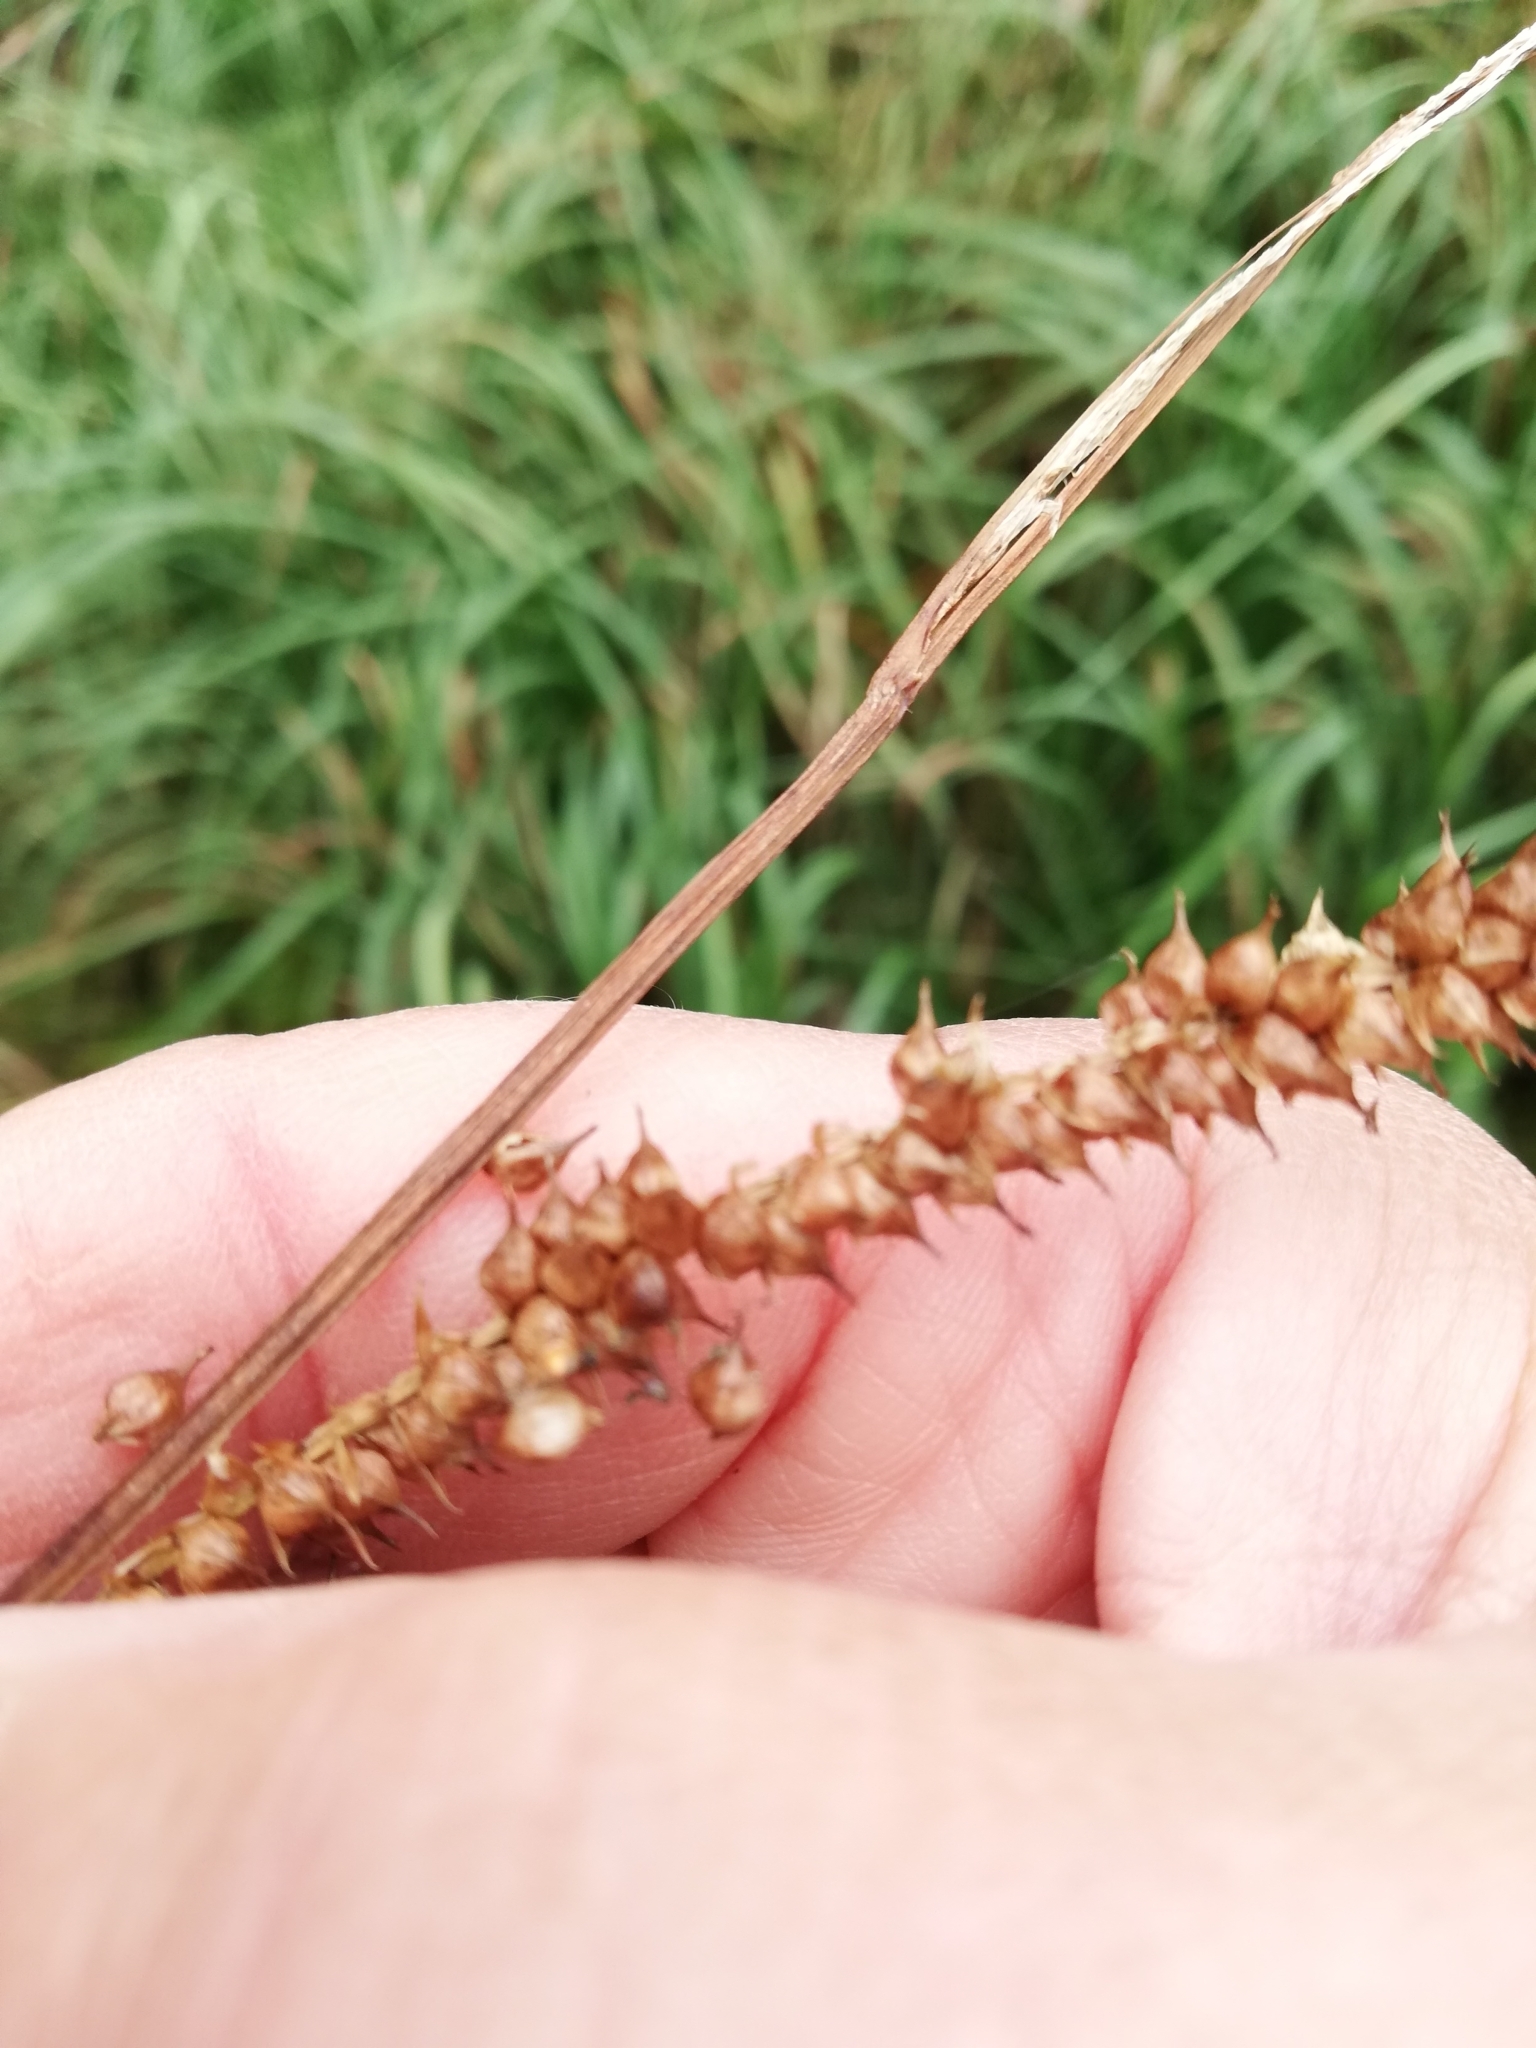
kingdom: Plantae
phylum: Tracheophyta
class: Liliopsida
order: Poales
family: Cyperaceae
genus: Carex
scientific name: Carex rostrata
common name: Bottle sedge
